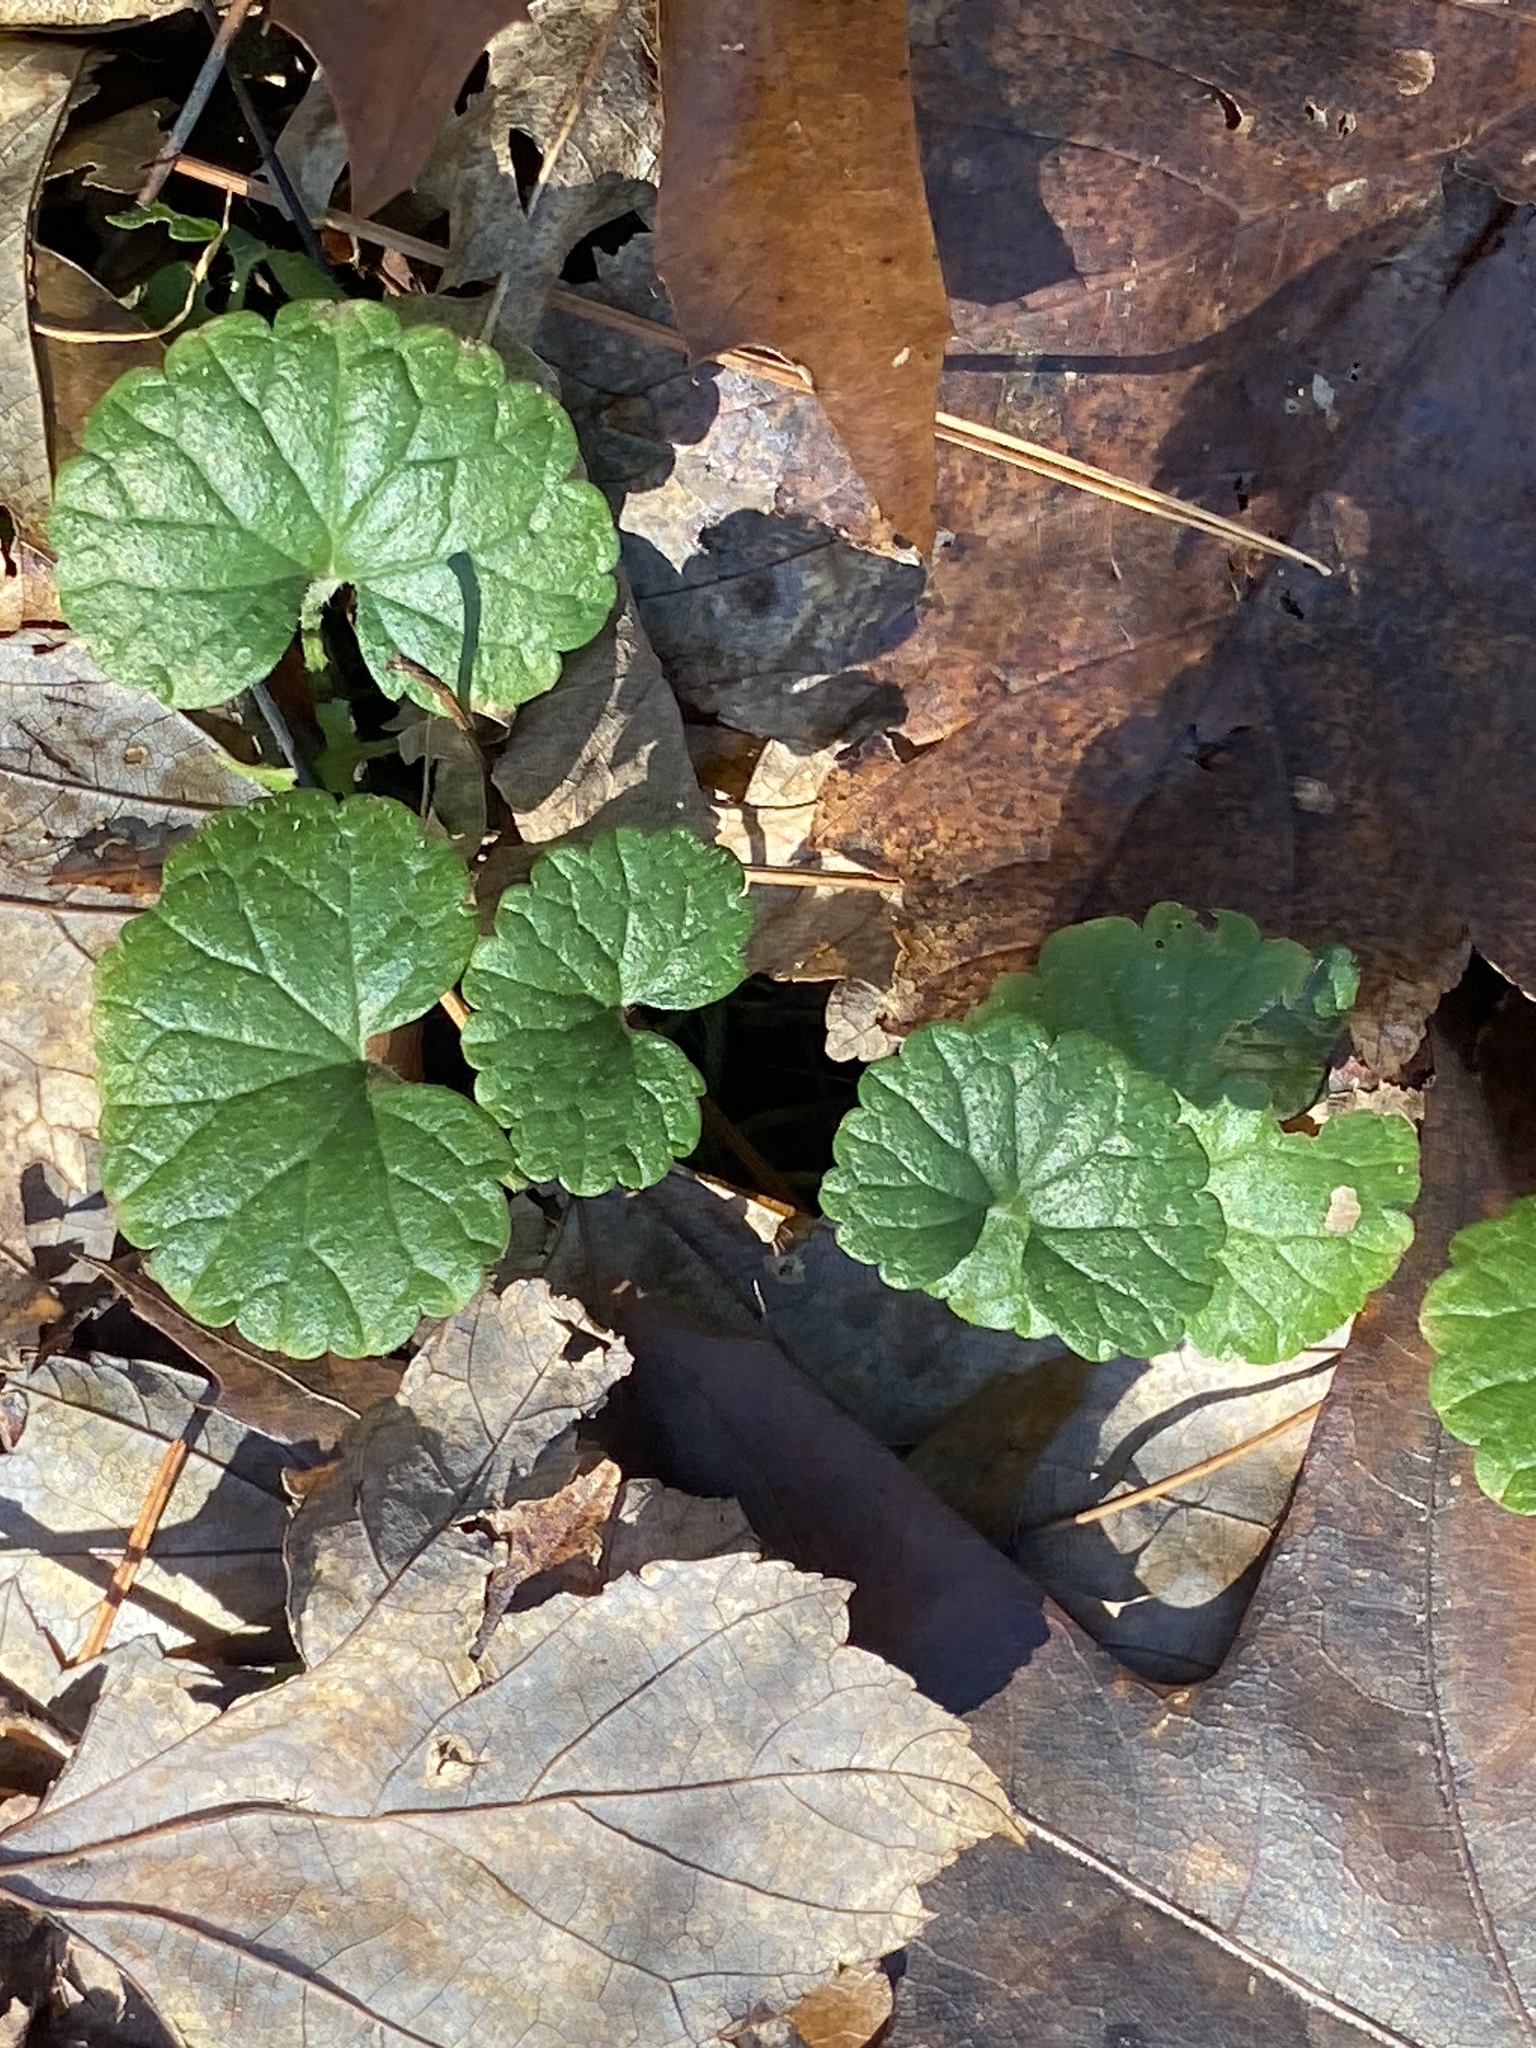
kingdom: Plantae
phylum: Tracheophyta
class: Magnoliopsida
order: Lamiales
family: Lamiaceae
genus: Glechoma
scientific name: Glechoma hederacea
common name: Ground ivy
